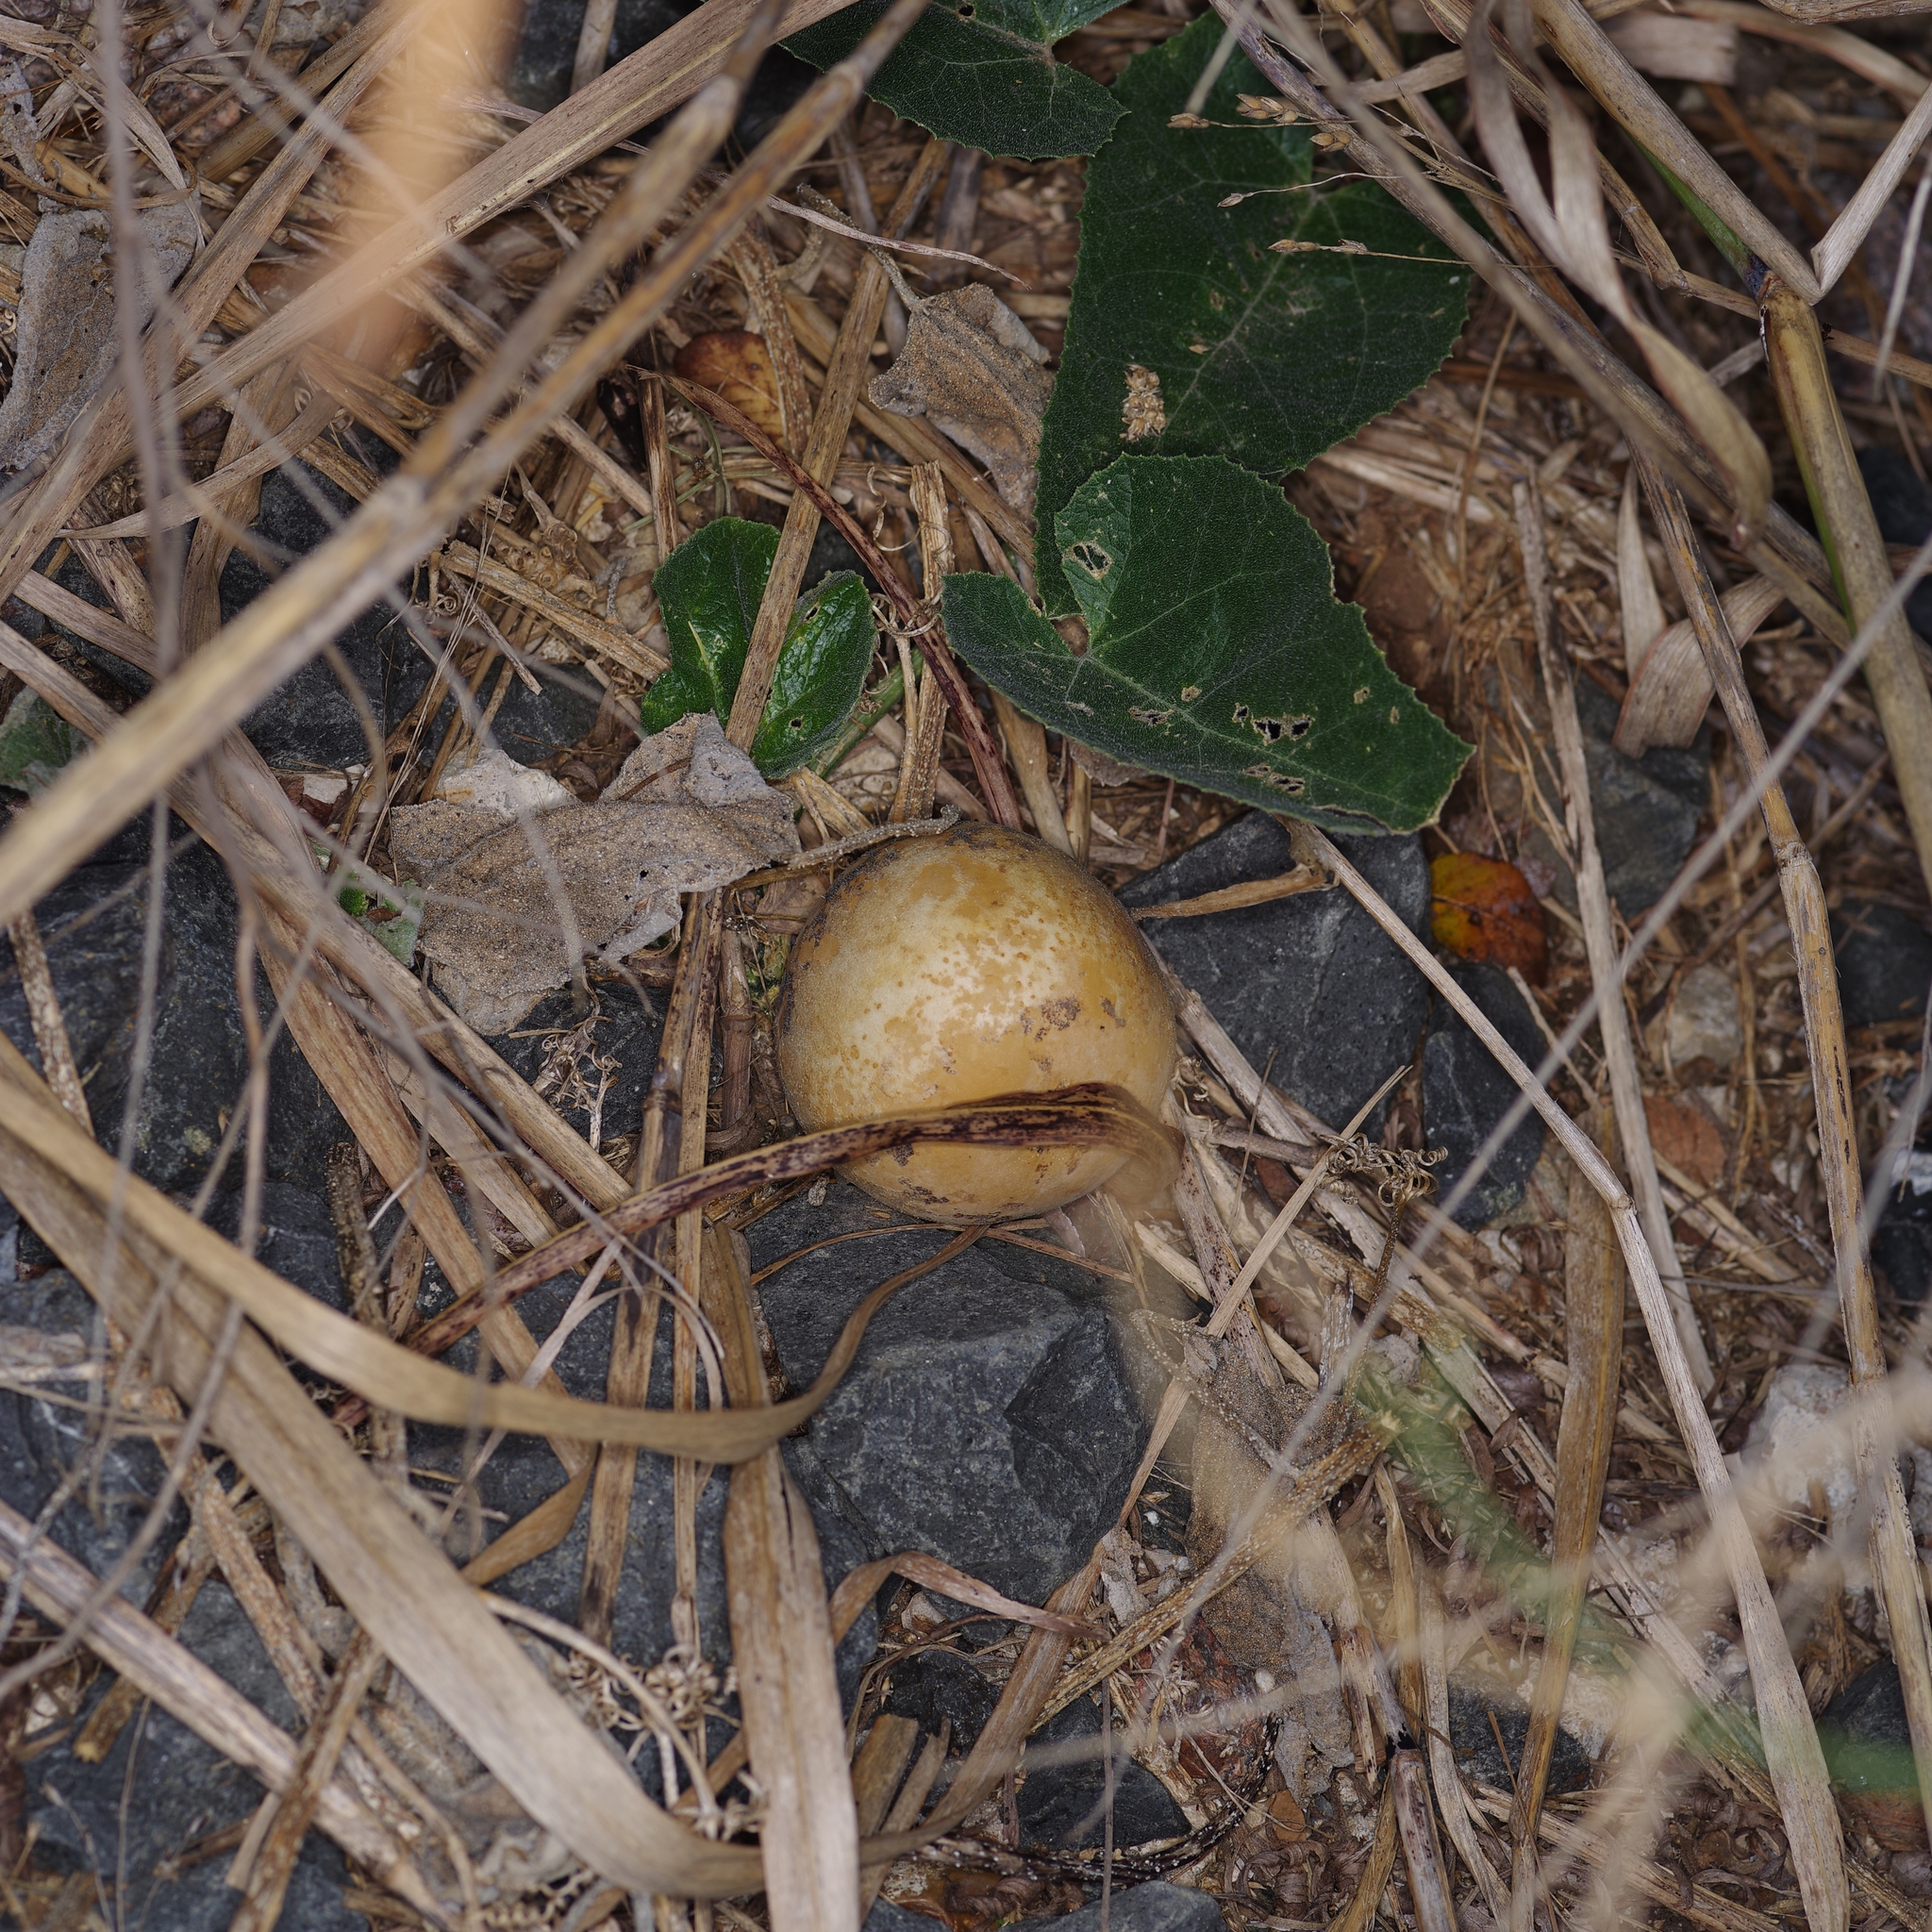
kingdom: Plantae
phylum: Tracheophyta
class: Magnoliopsida
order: Cucurbitales
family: Cucurbitaceae
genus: Cucurbita
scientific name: Cucurbita foetidissima
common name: Buffalo gourd
